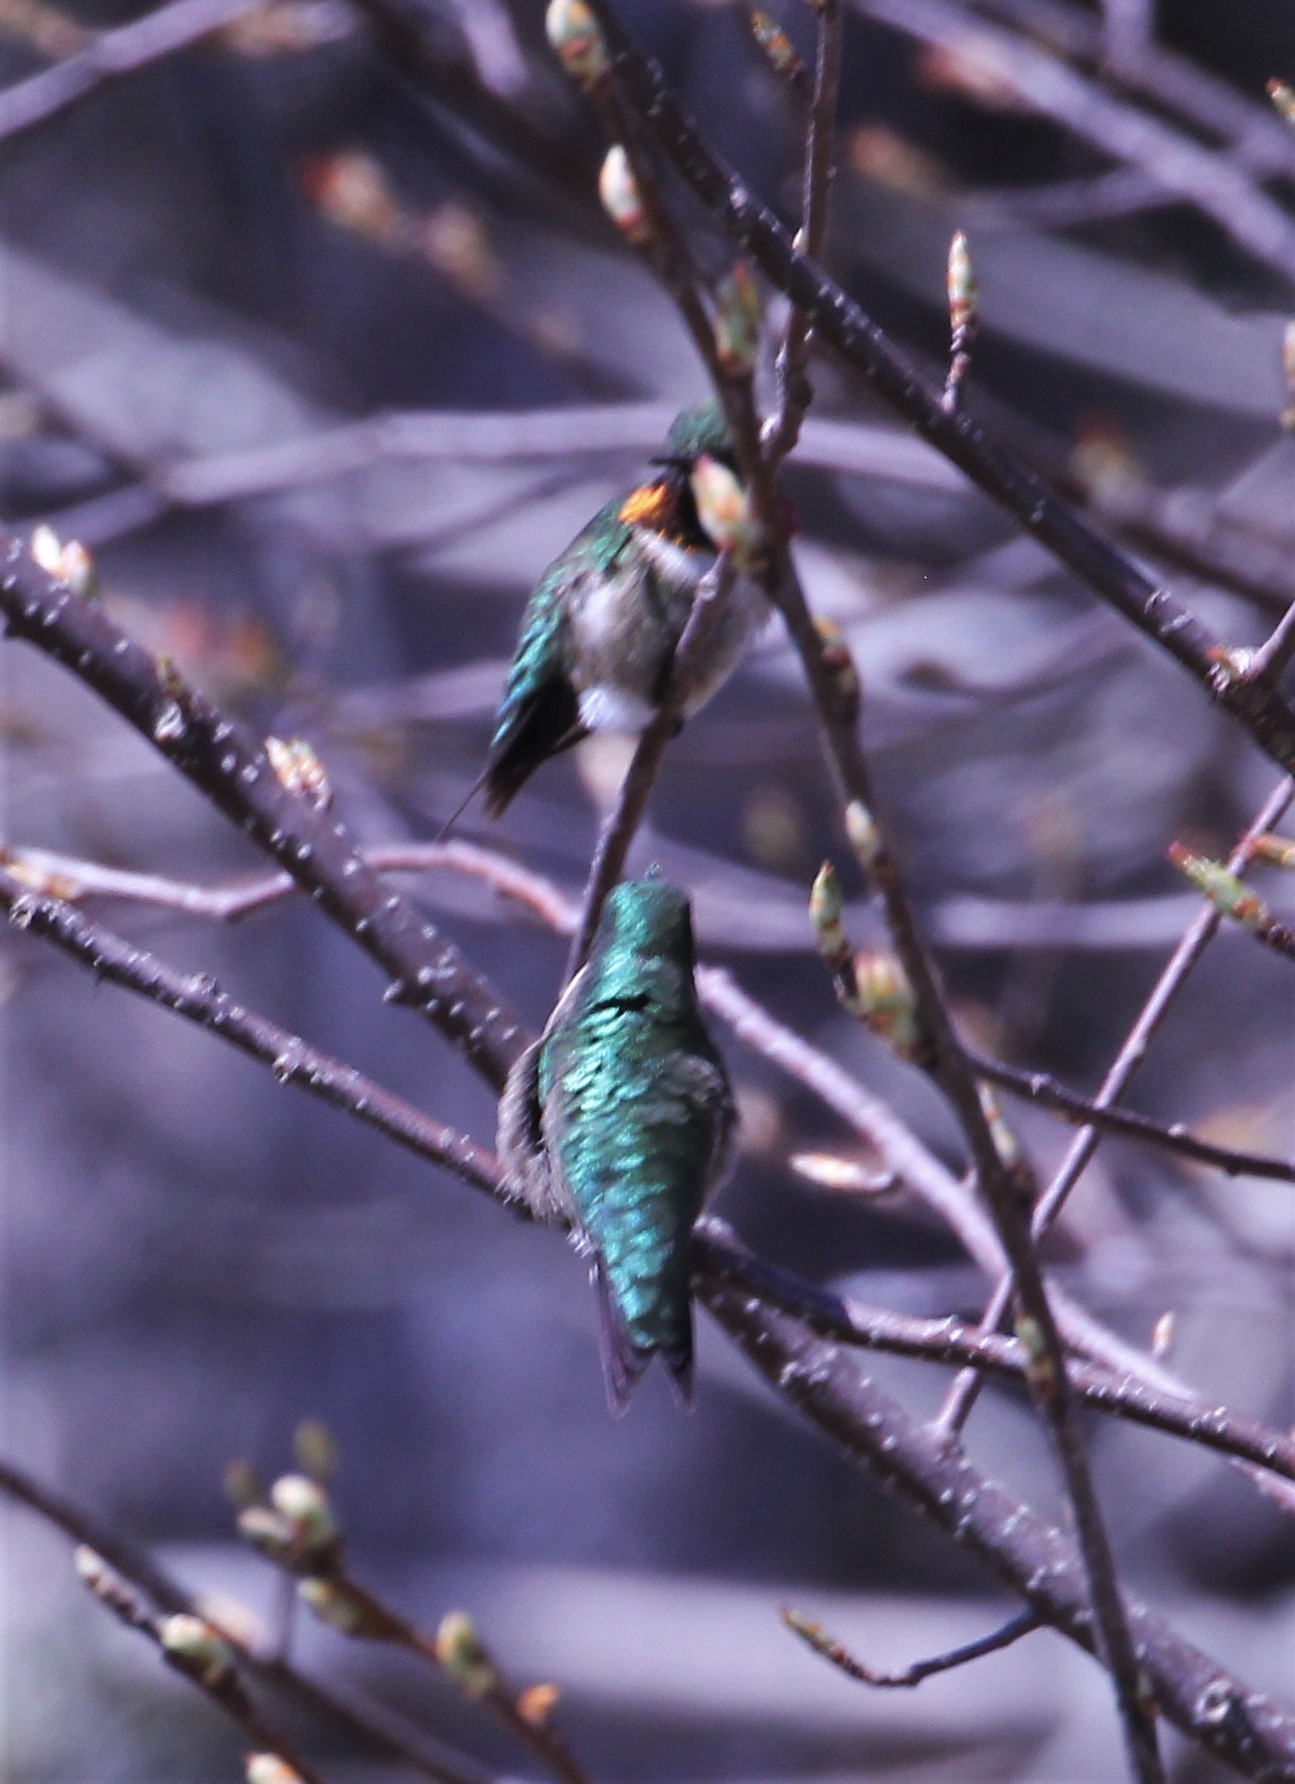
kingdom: Animalia
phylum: Chordata
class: Aves
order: Apodiformes
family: Trochilidae
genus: Archilochus
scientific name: Archilochus colubris
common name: Ruby-throated hummingbird
